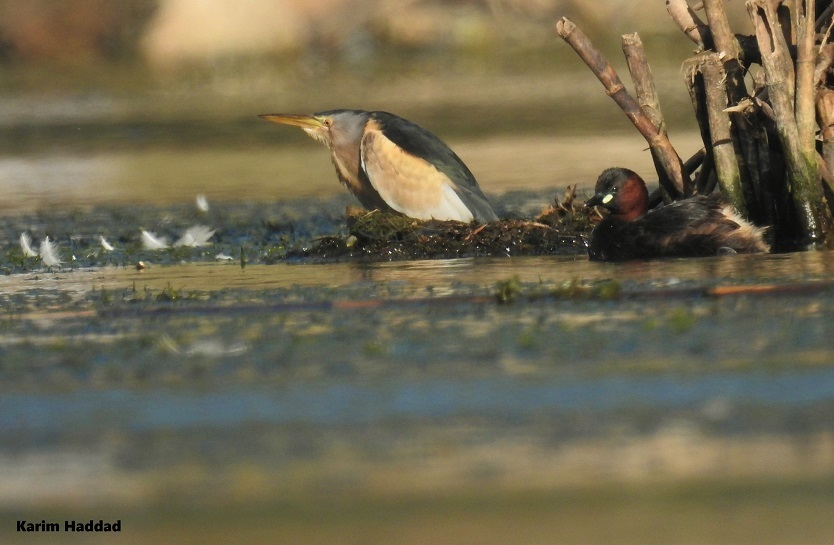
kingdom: Animalia
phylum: Chordata
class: Aves
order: Pelecaniformes
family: Ardeidae
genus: Ixobrychus
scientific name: Ixobrychus minutus
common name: Little bittern
